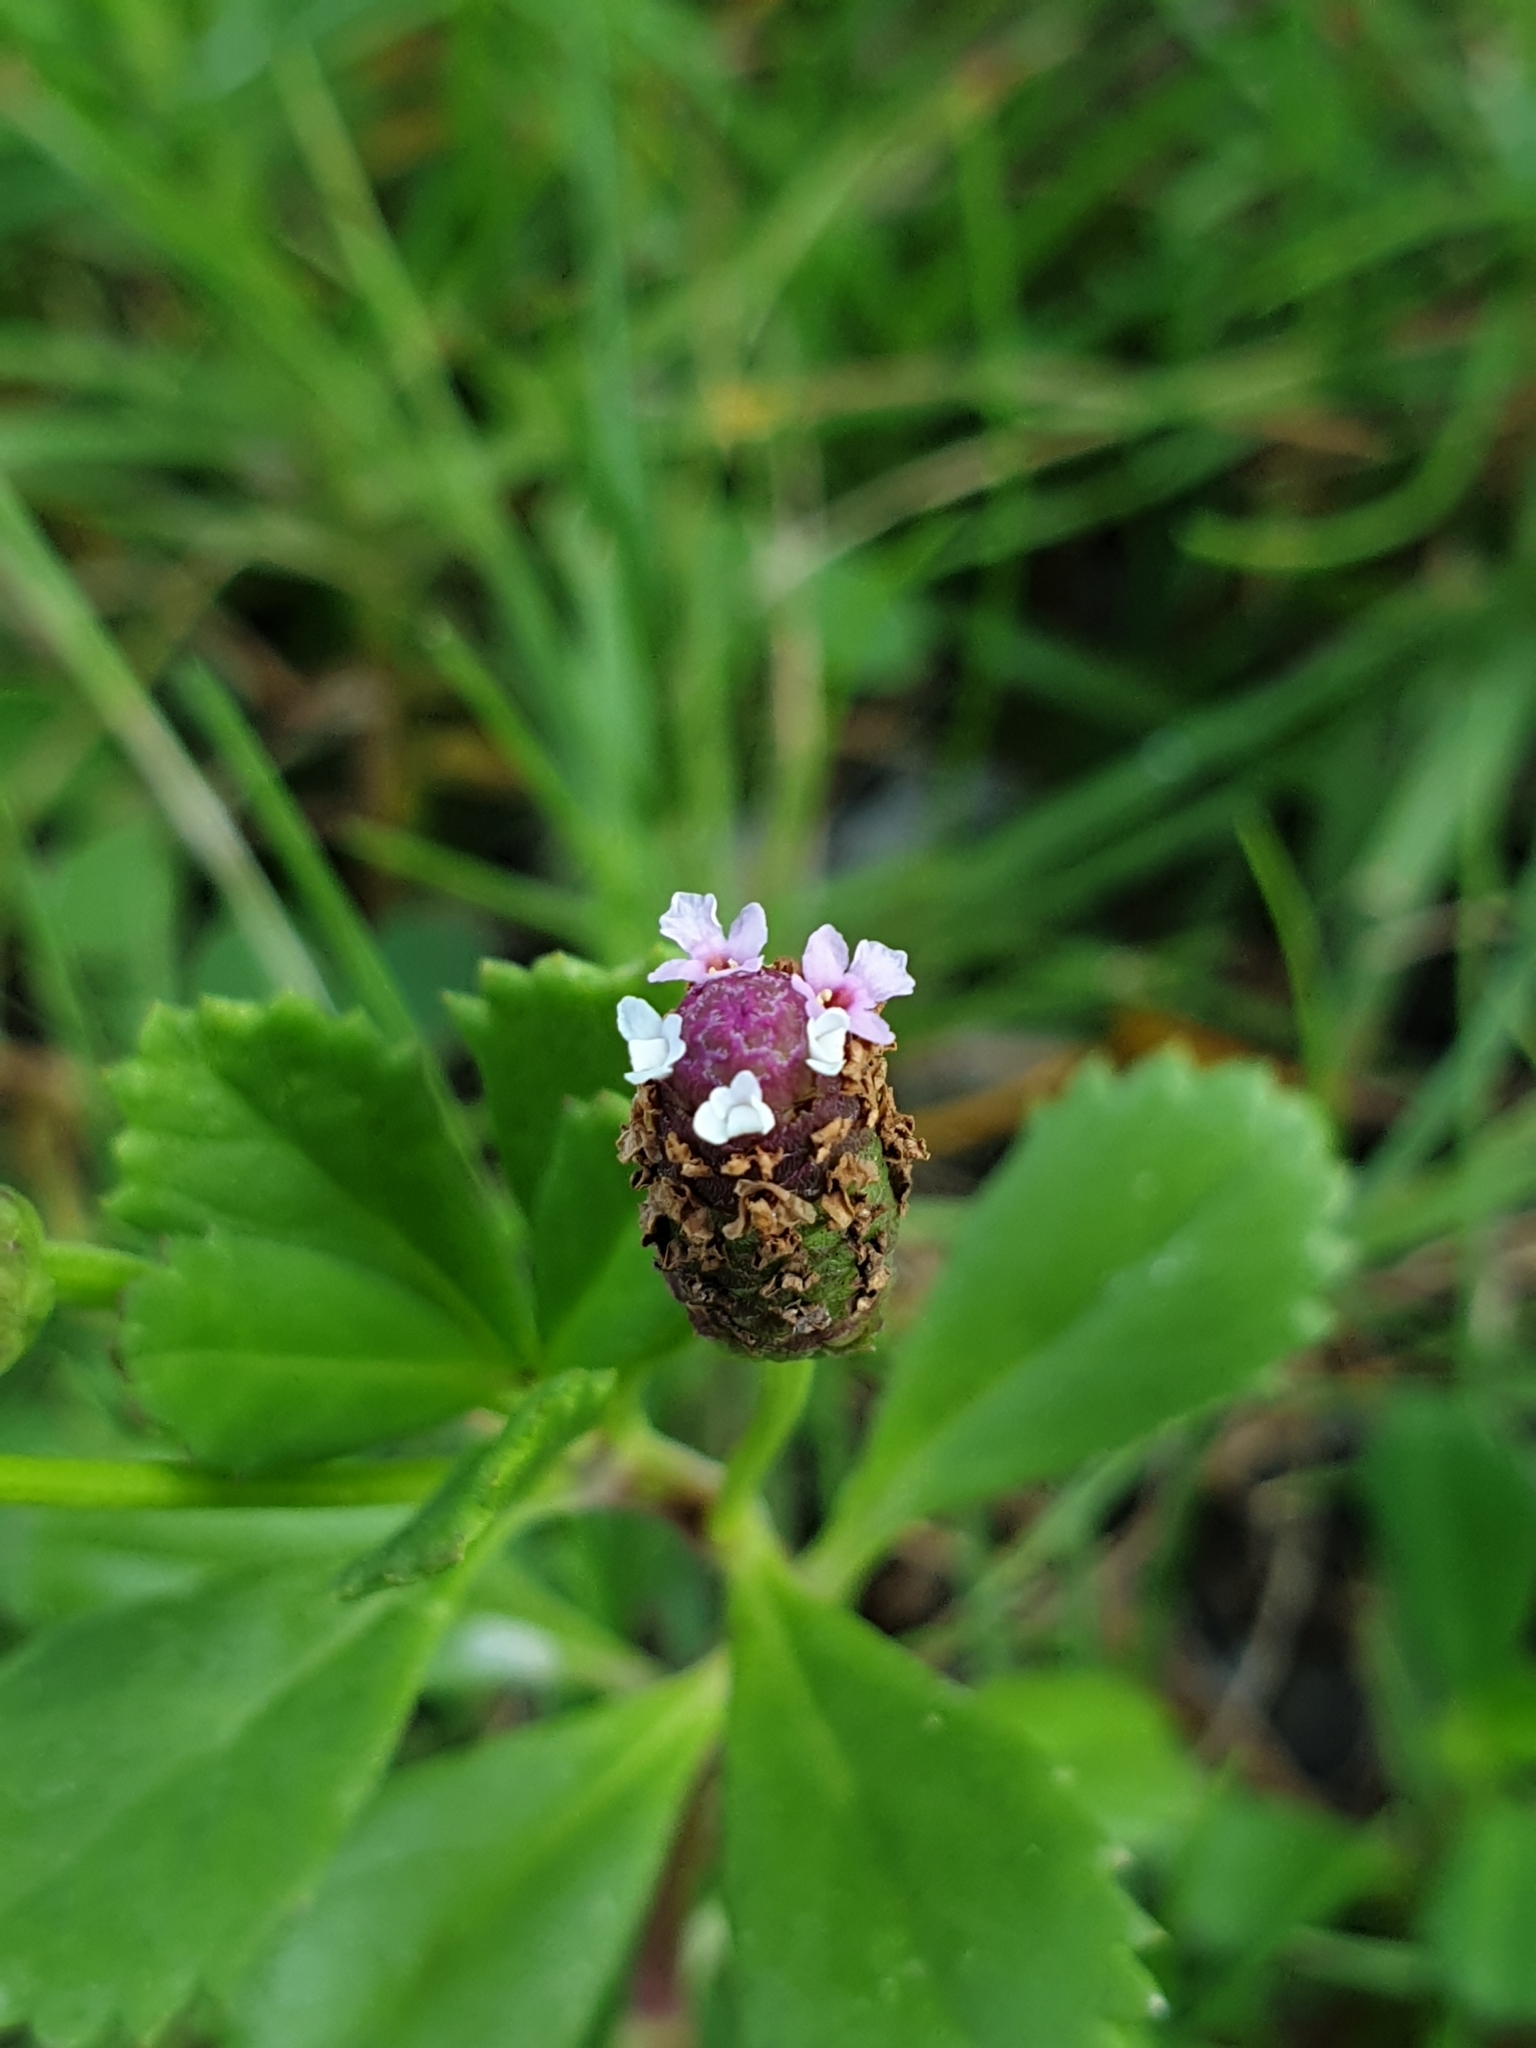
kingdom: Plantae
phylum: Tracheophyta
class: Magnoliopsida
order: Lamiales
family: Verbenaceae
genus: Phyla
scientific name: Phyla nodiflora
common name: Frogfruit
